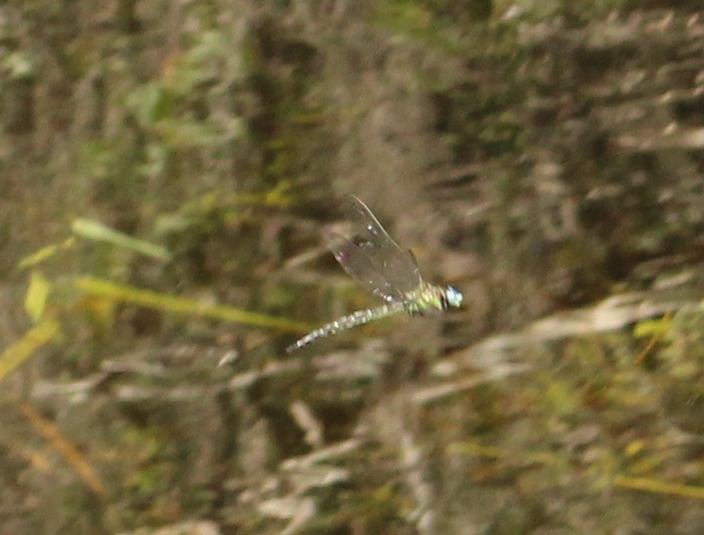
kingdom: Animalia
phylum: Arthropoda
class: Insecta
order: Odonata
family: Aeshnidae
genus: Nasiaeschna
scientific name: Nasiaeschna pentacantha
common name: Cyrano darner
